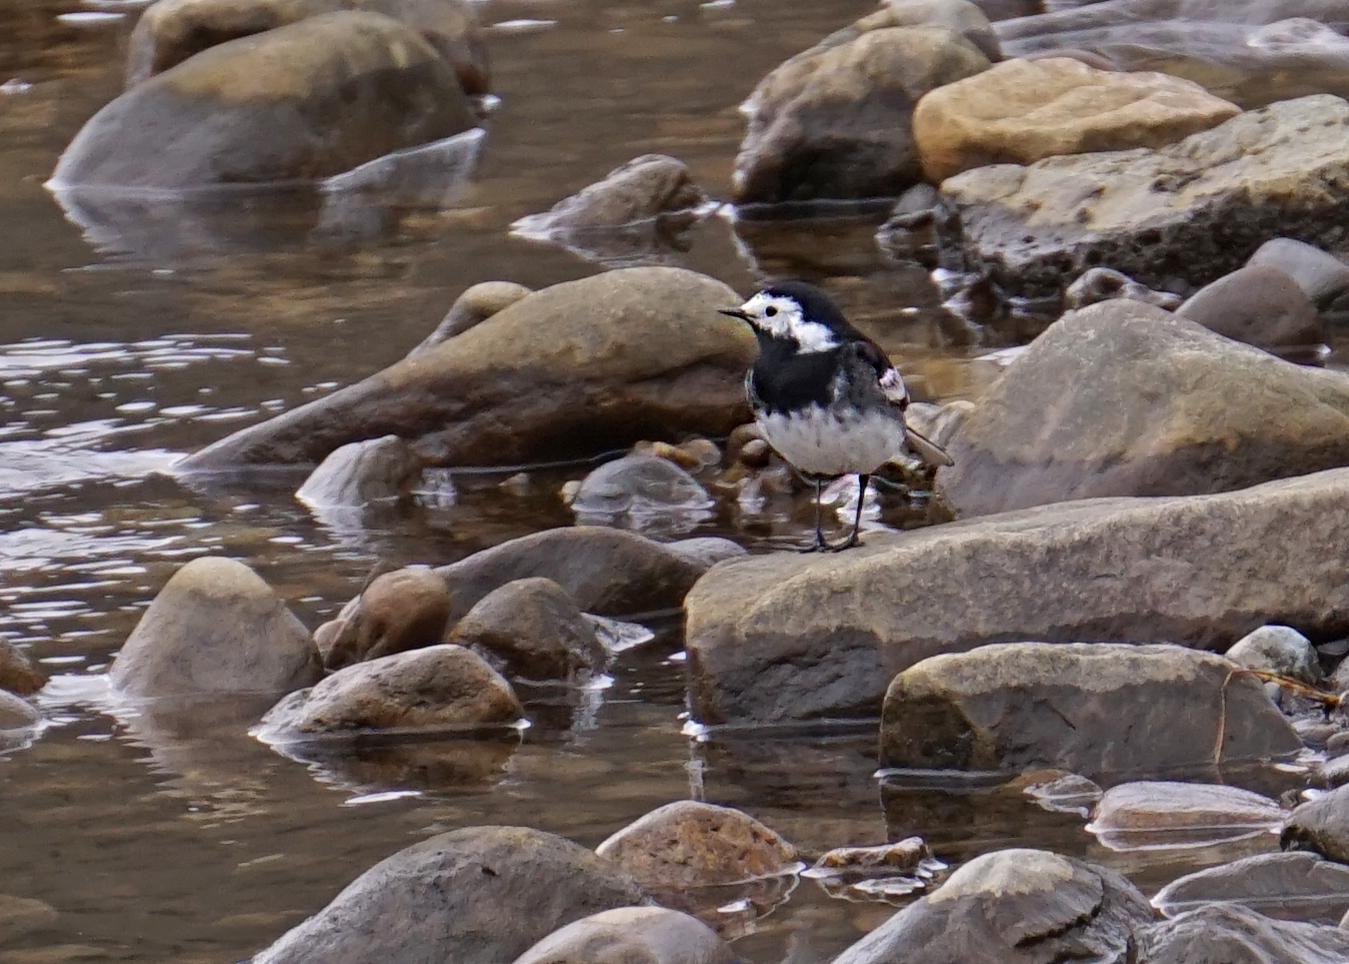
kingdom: Animalia
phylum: Chordata
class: Aves
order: Passeriformes
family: Motacillidae
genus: Motacilla
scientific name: Motacilla alba
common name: White wagtail
